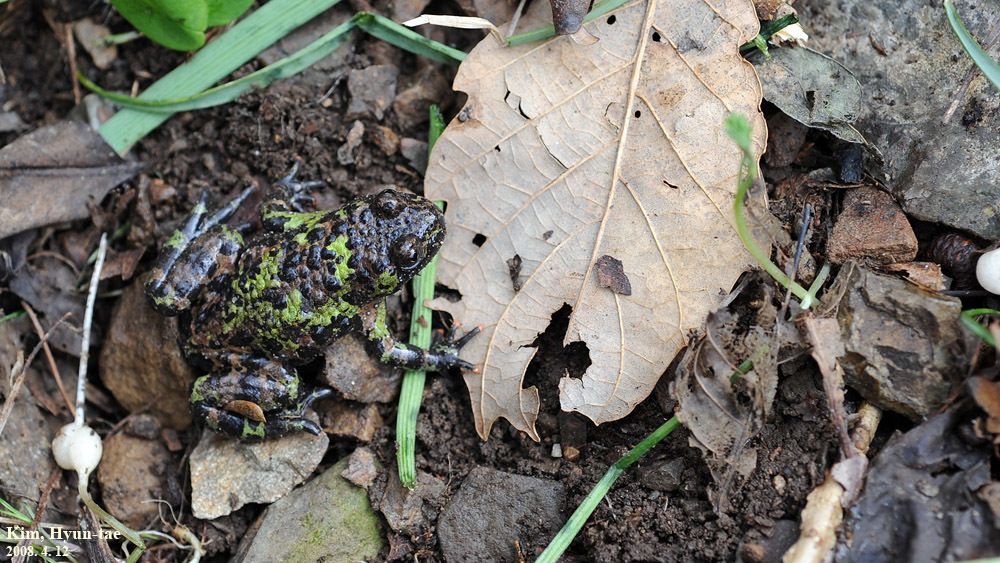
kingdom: Animalia
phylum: Chordata
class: Amphibia
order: Anura
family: Bombinatoridae
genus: Bombina
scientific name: Bombina orientalis
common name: Oriental firebelly toad
